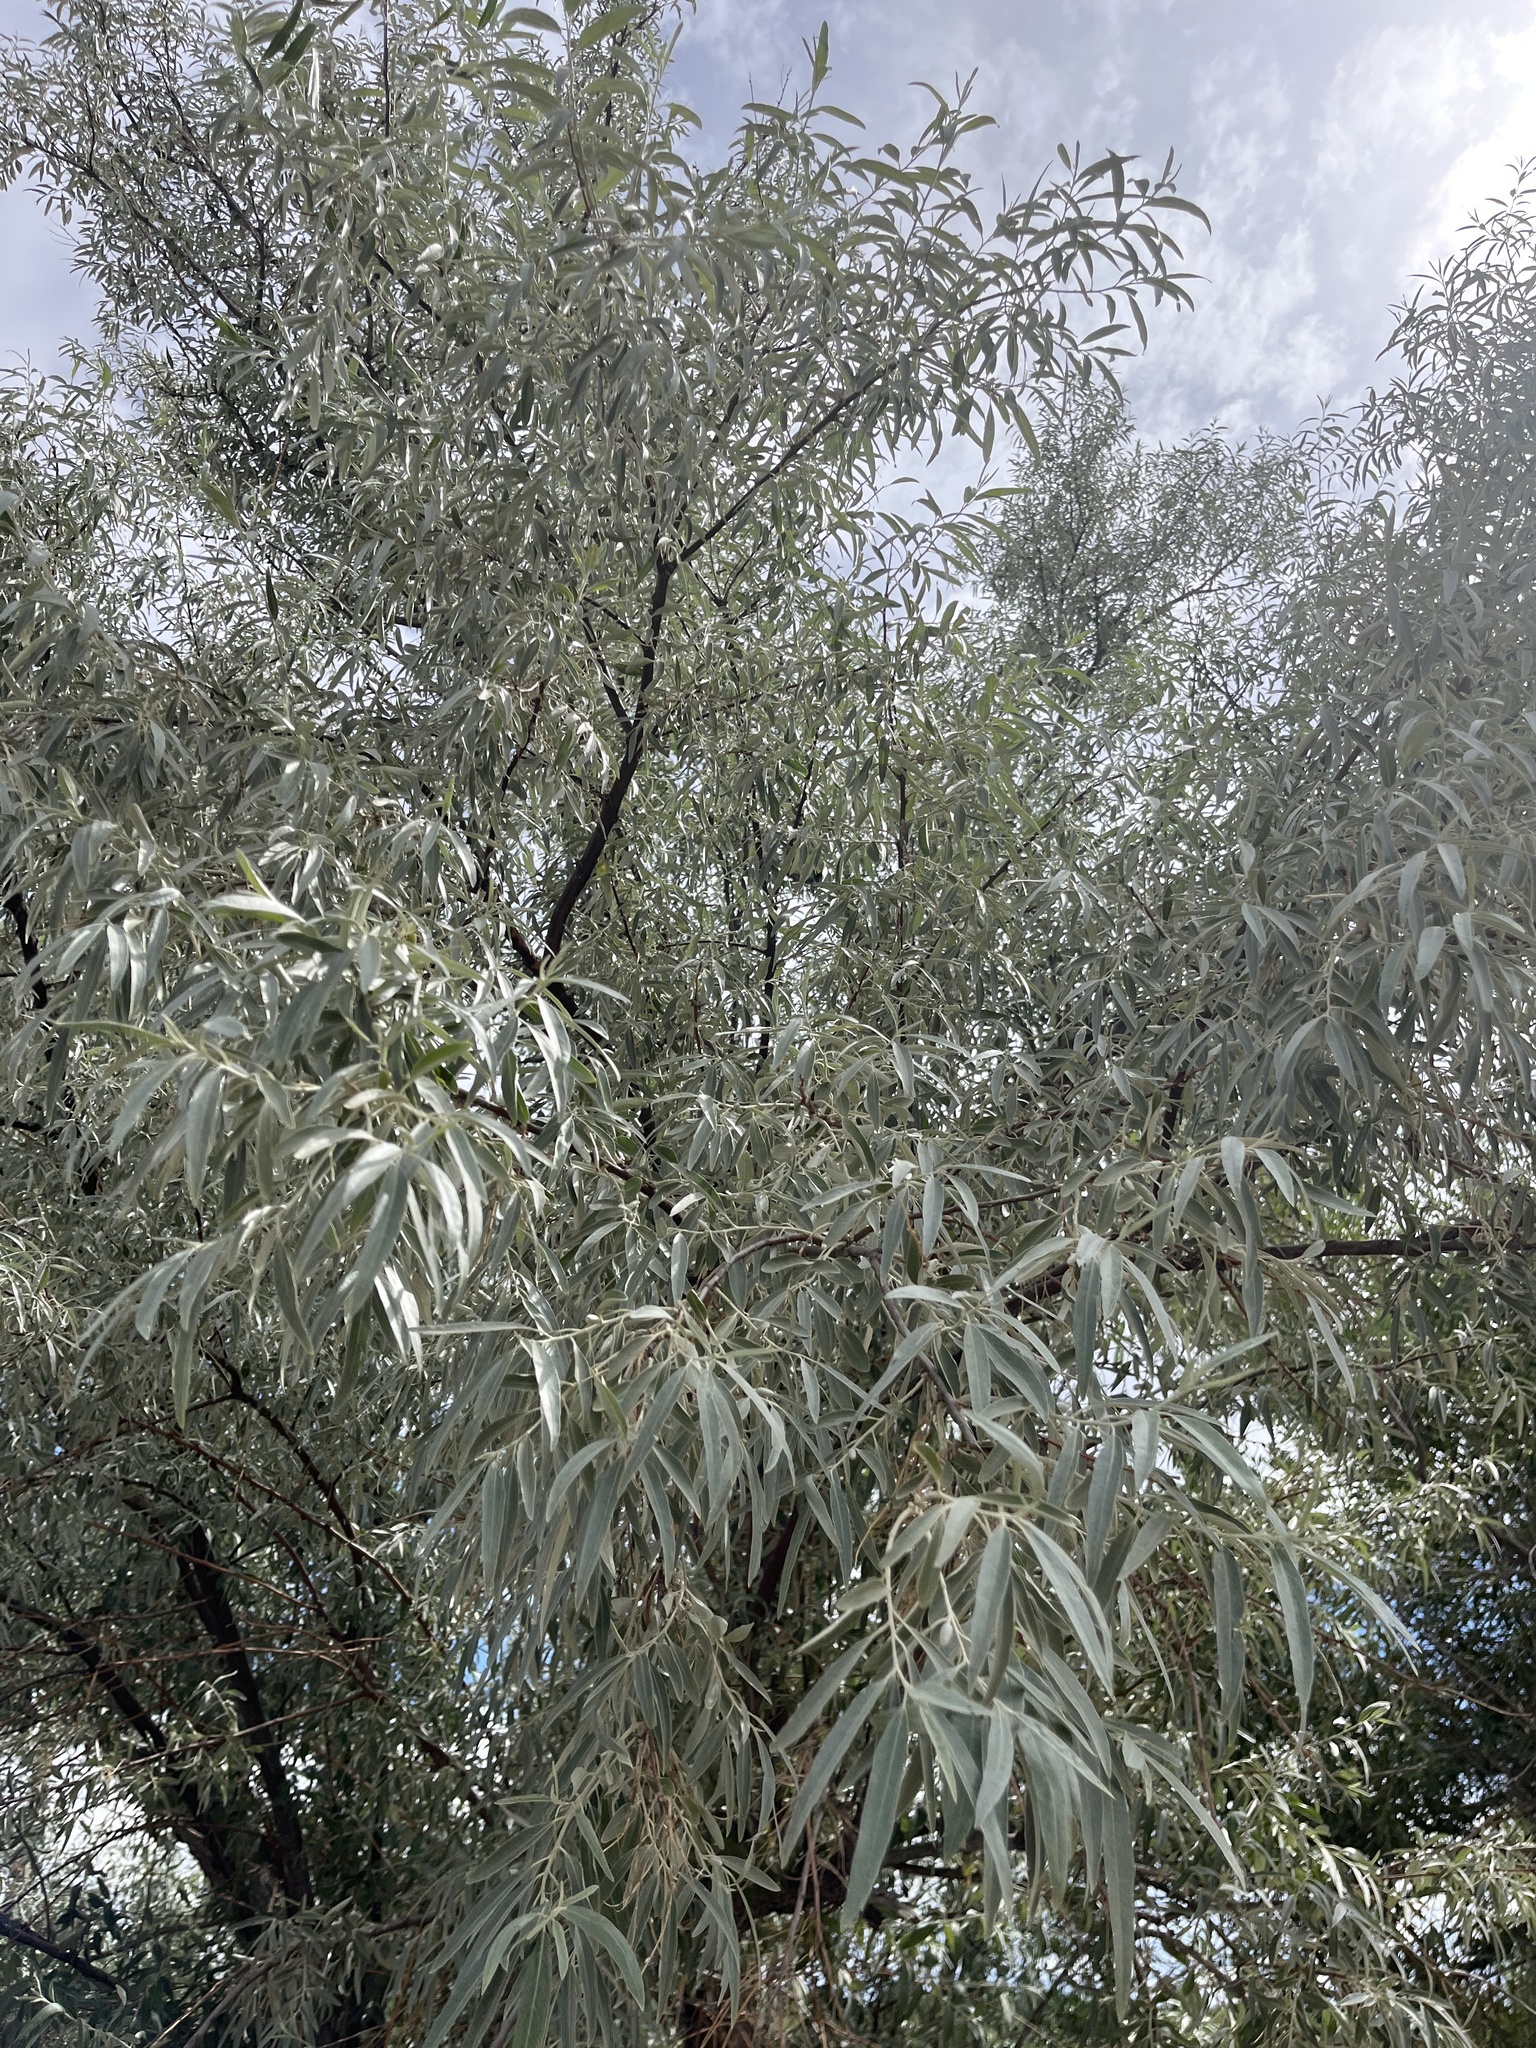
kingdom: Plantae
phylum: Tracheophyta
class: Magnoliopsida
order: Rosales
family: Elaeagnaceae
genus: Elaeagnus
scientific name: Elaeagnus angustifolia
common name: Russian olive
